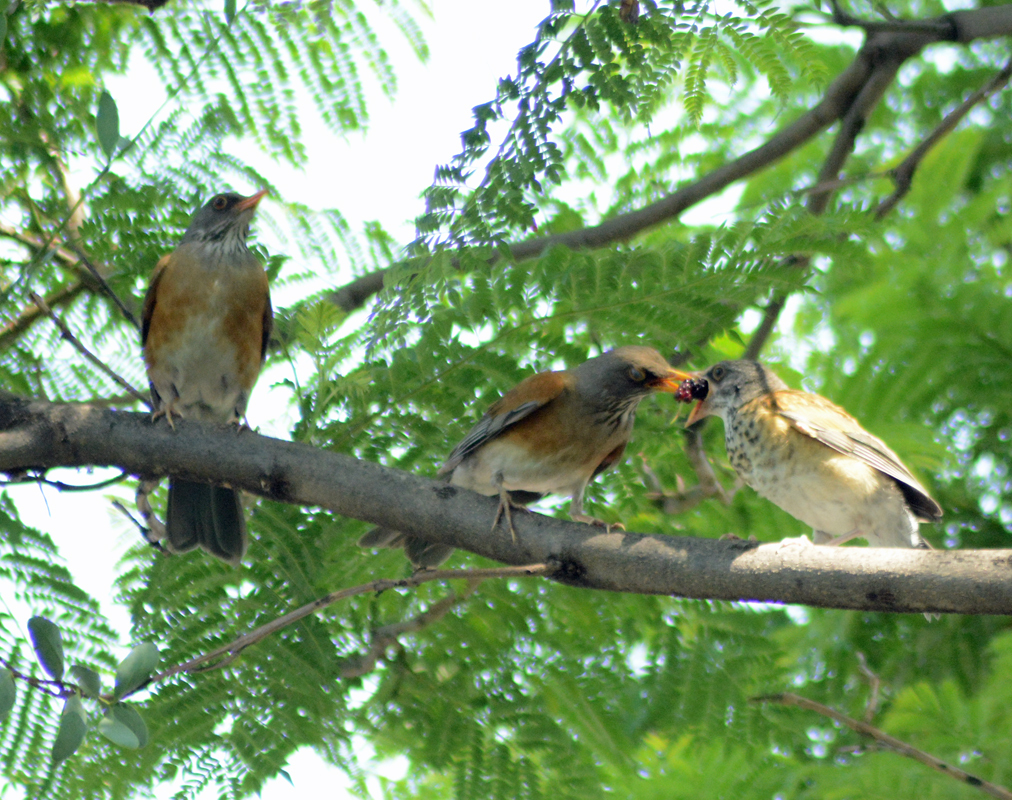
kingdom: Animalia
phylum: Chordata
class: Aves
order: Passeriformes
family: Turdidae
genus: Turdus
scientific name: Turdus rufopalliatus
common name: Rufous-backed robin
